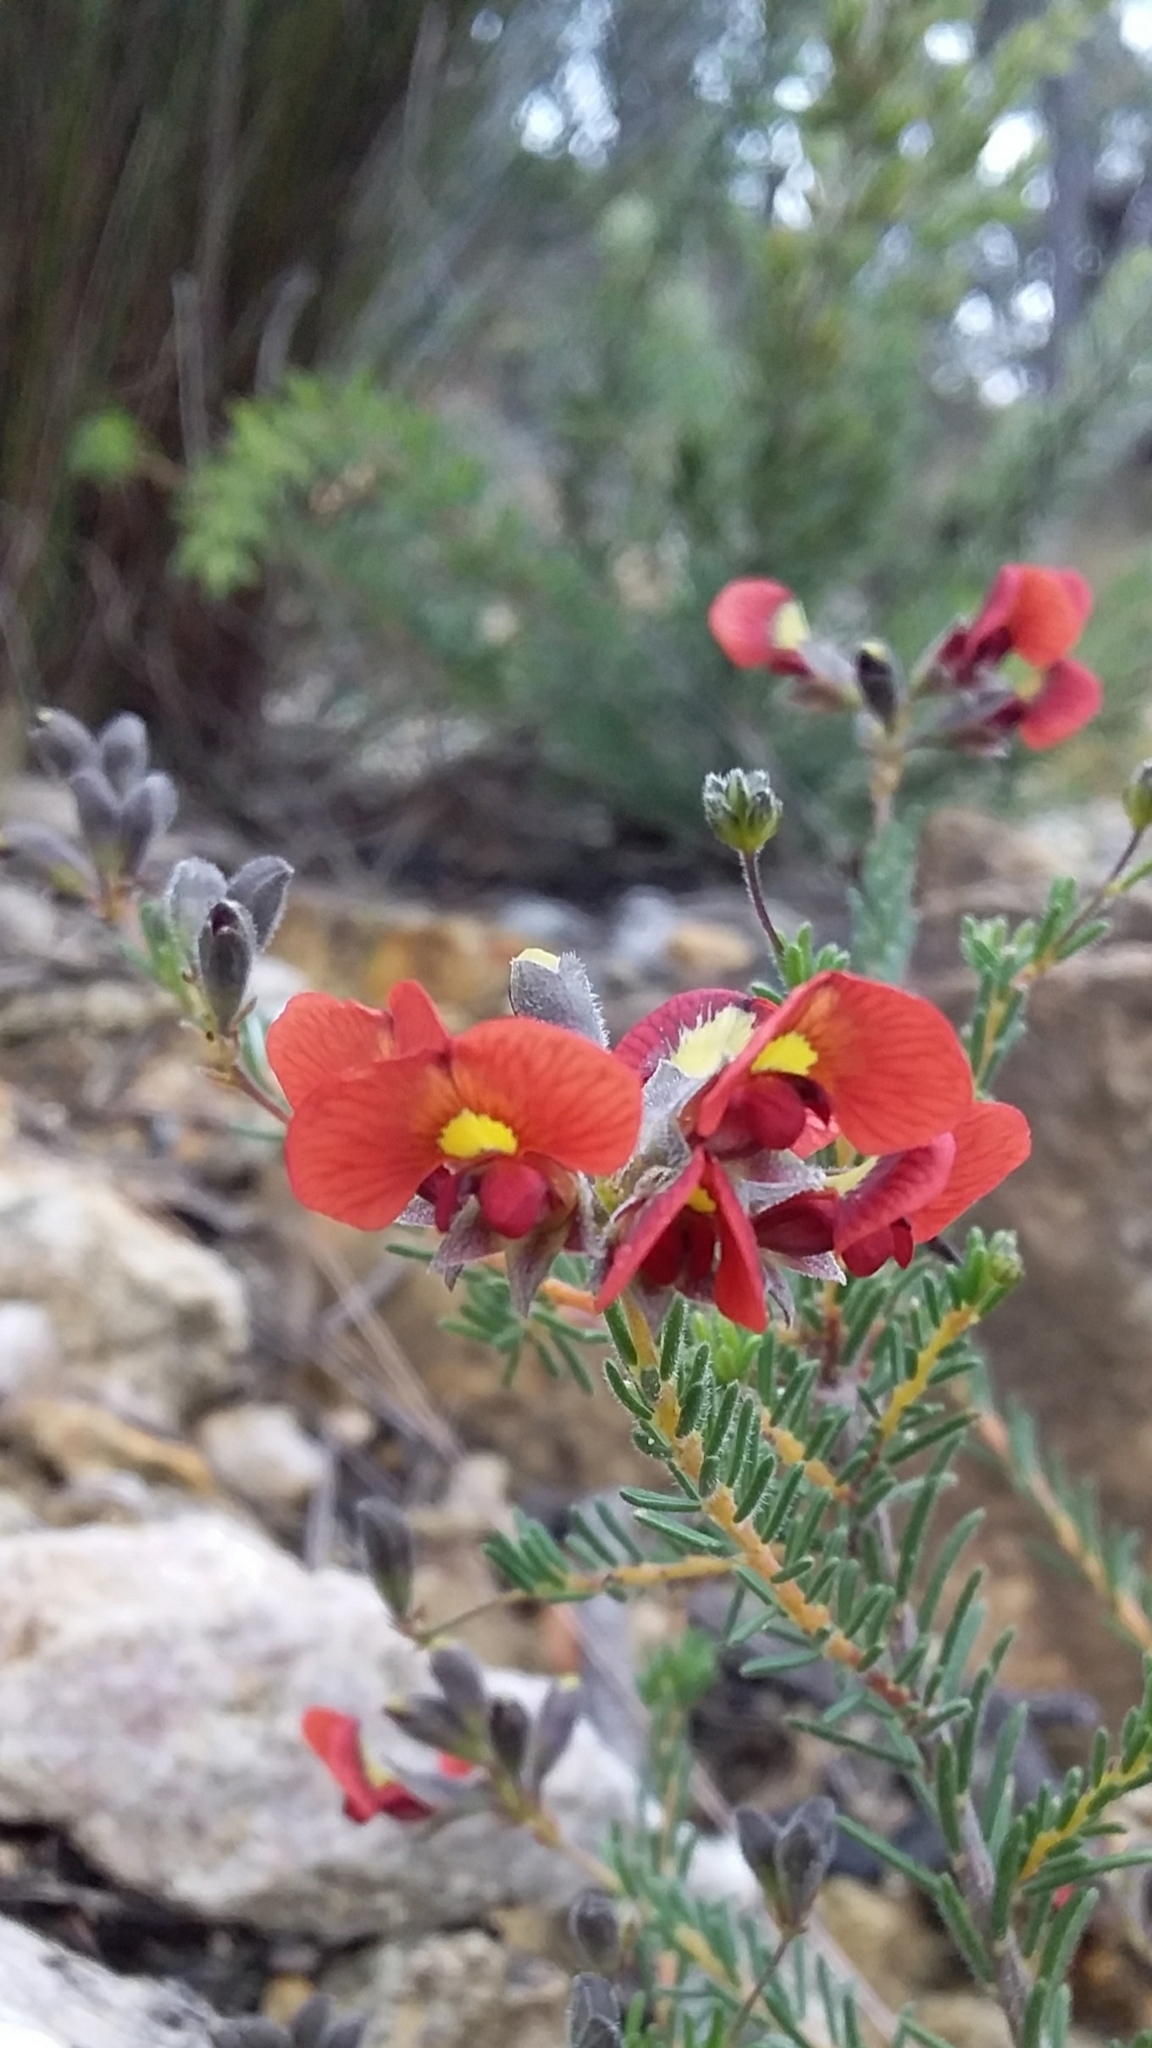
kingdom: Plantae
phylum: Tracheophyta
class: Magnoliopsida
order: Fabales
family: Fabaceae
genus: Dillwynia
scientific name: Dillwynia hispida
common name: Red parrot-pea
